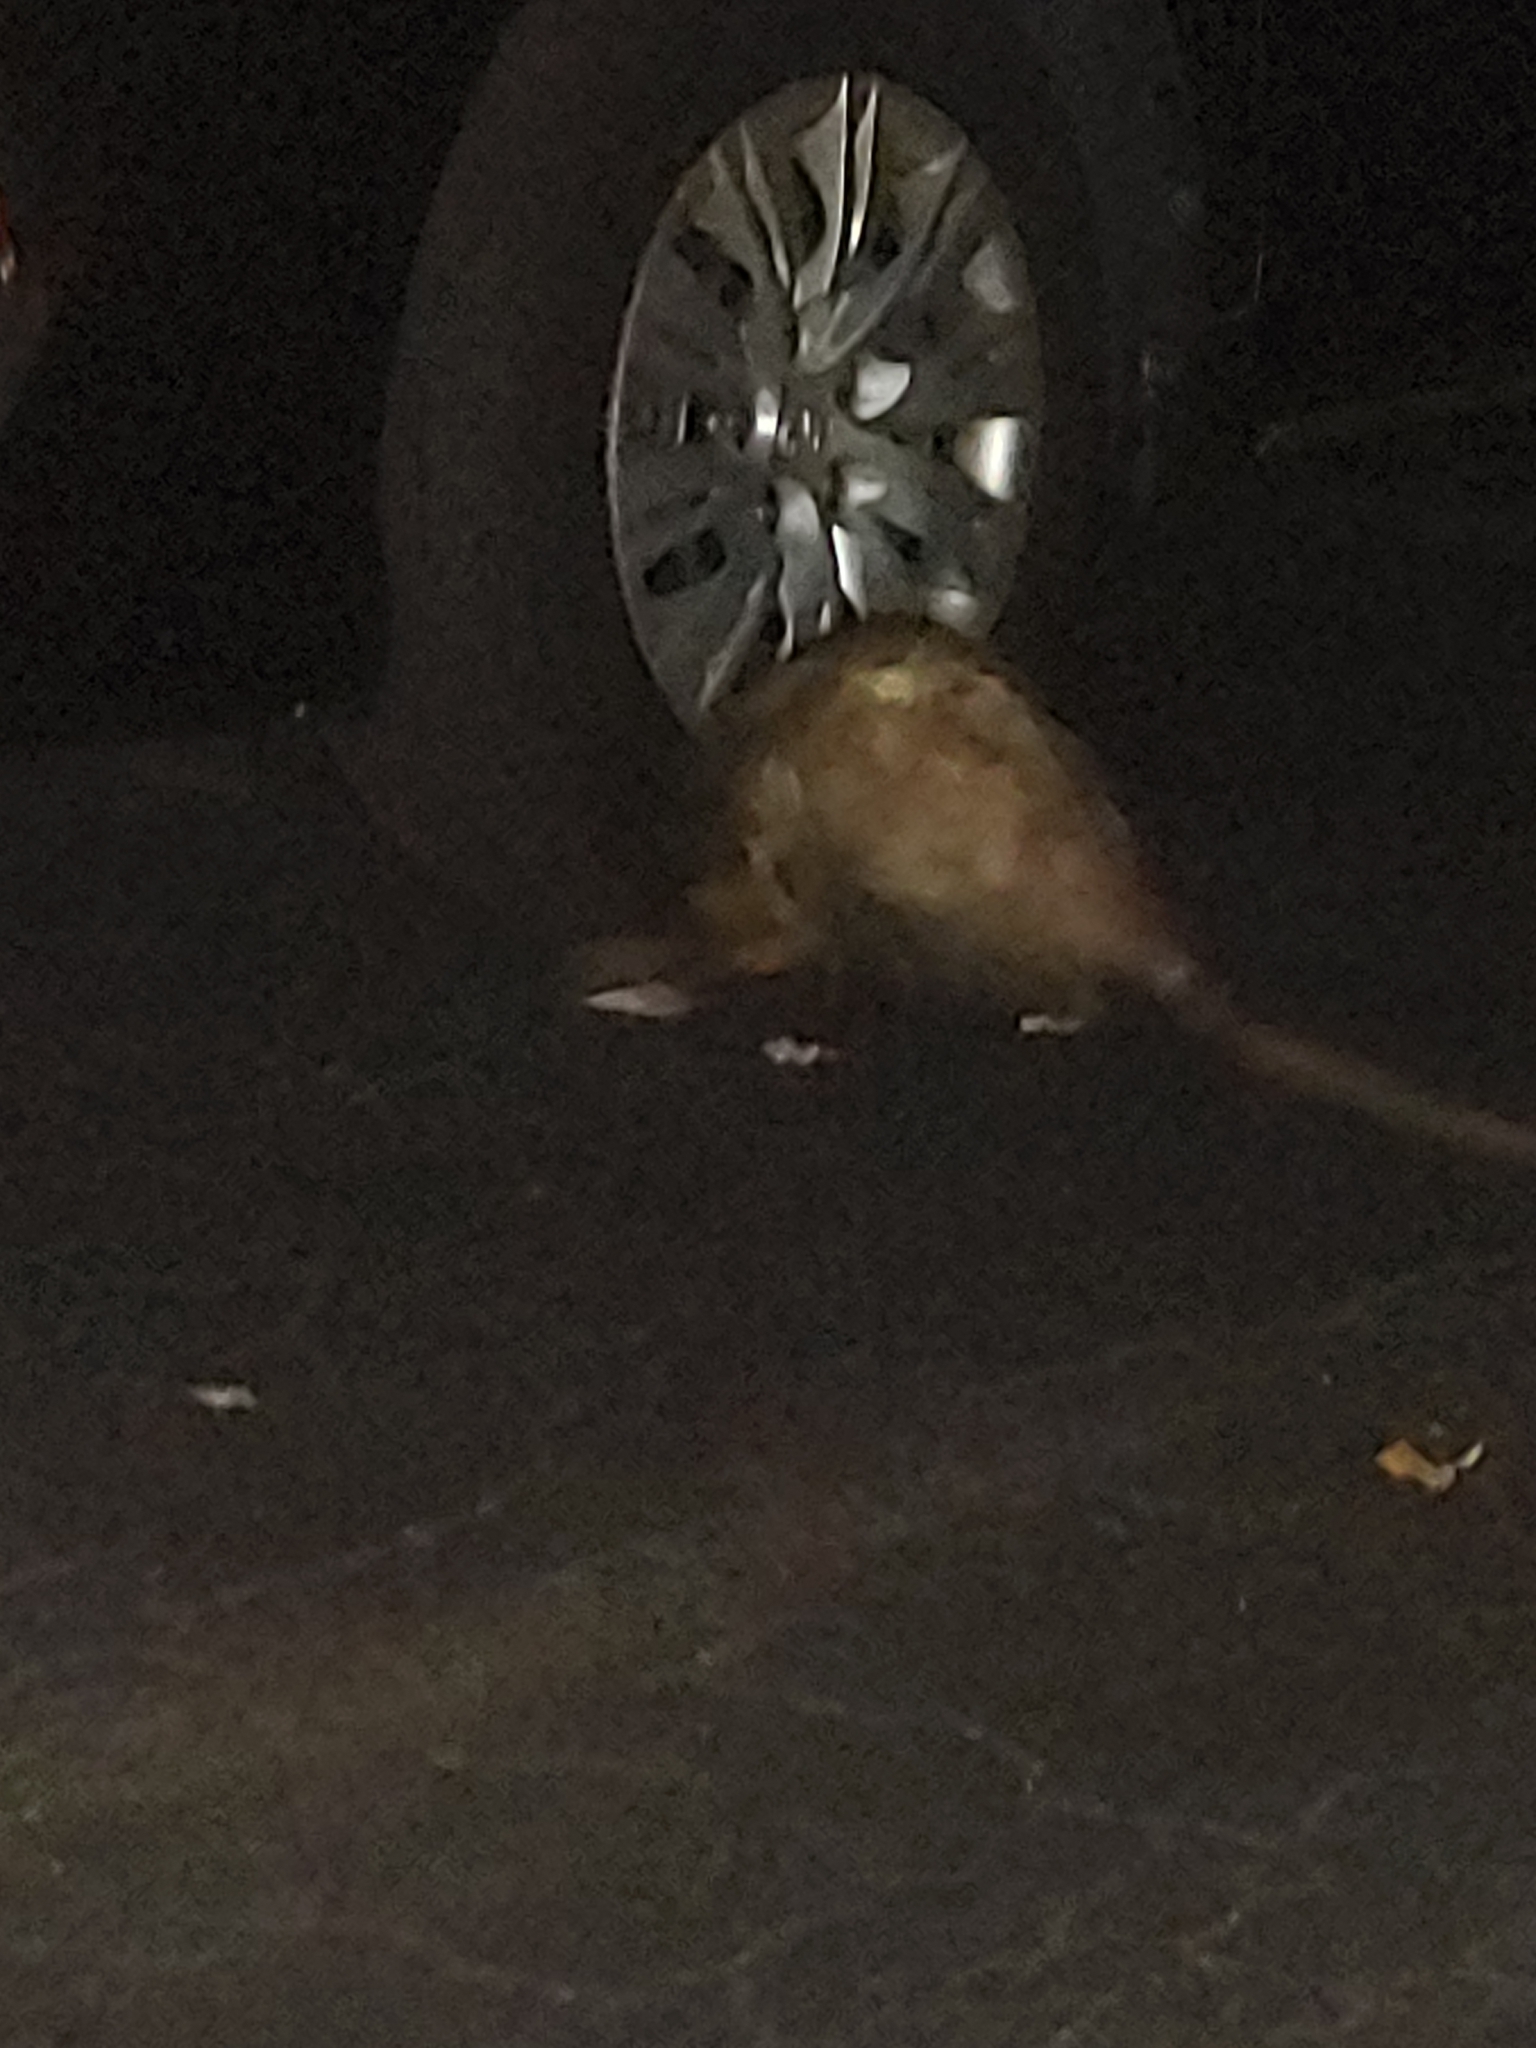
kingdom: Animalia
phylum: Chordata
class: Mammalia
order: Didelphimorphia
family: Didelphidae
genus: Didelphis
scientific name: Didelphis virginiana
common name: Virginia opossum
